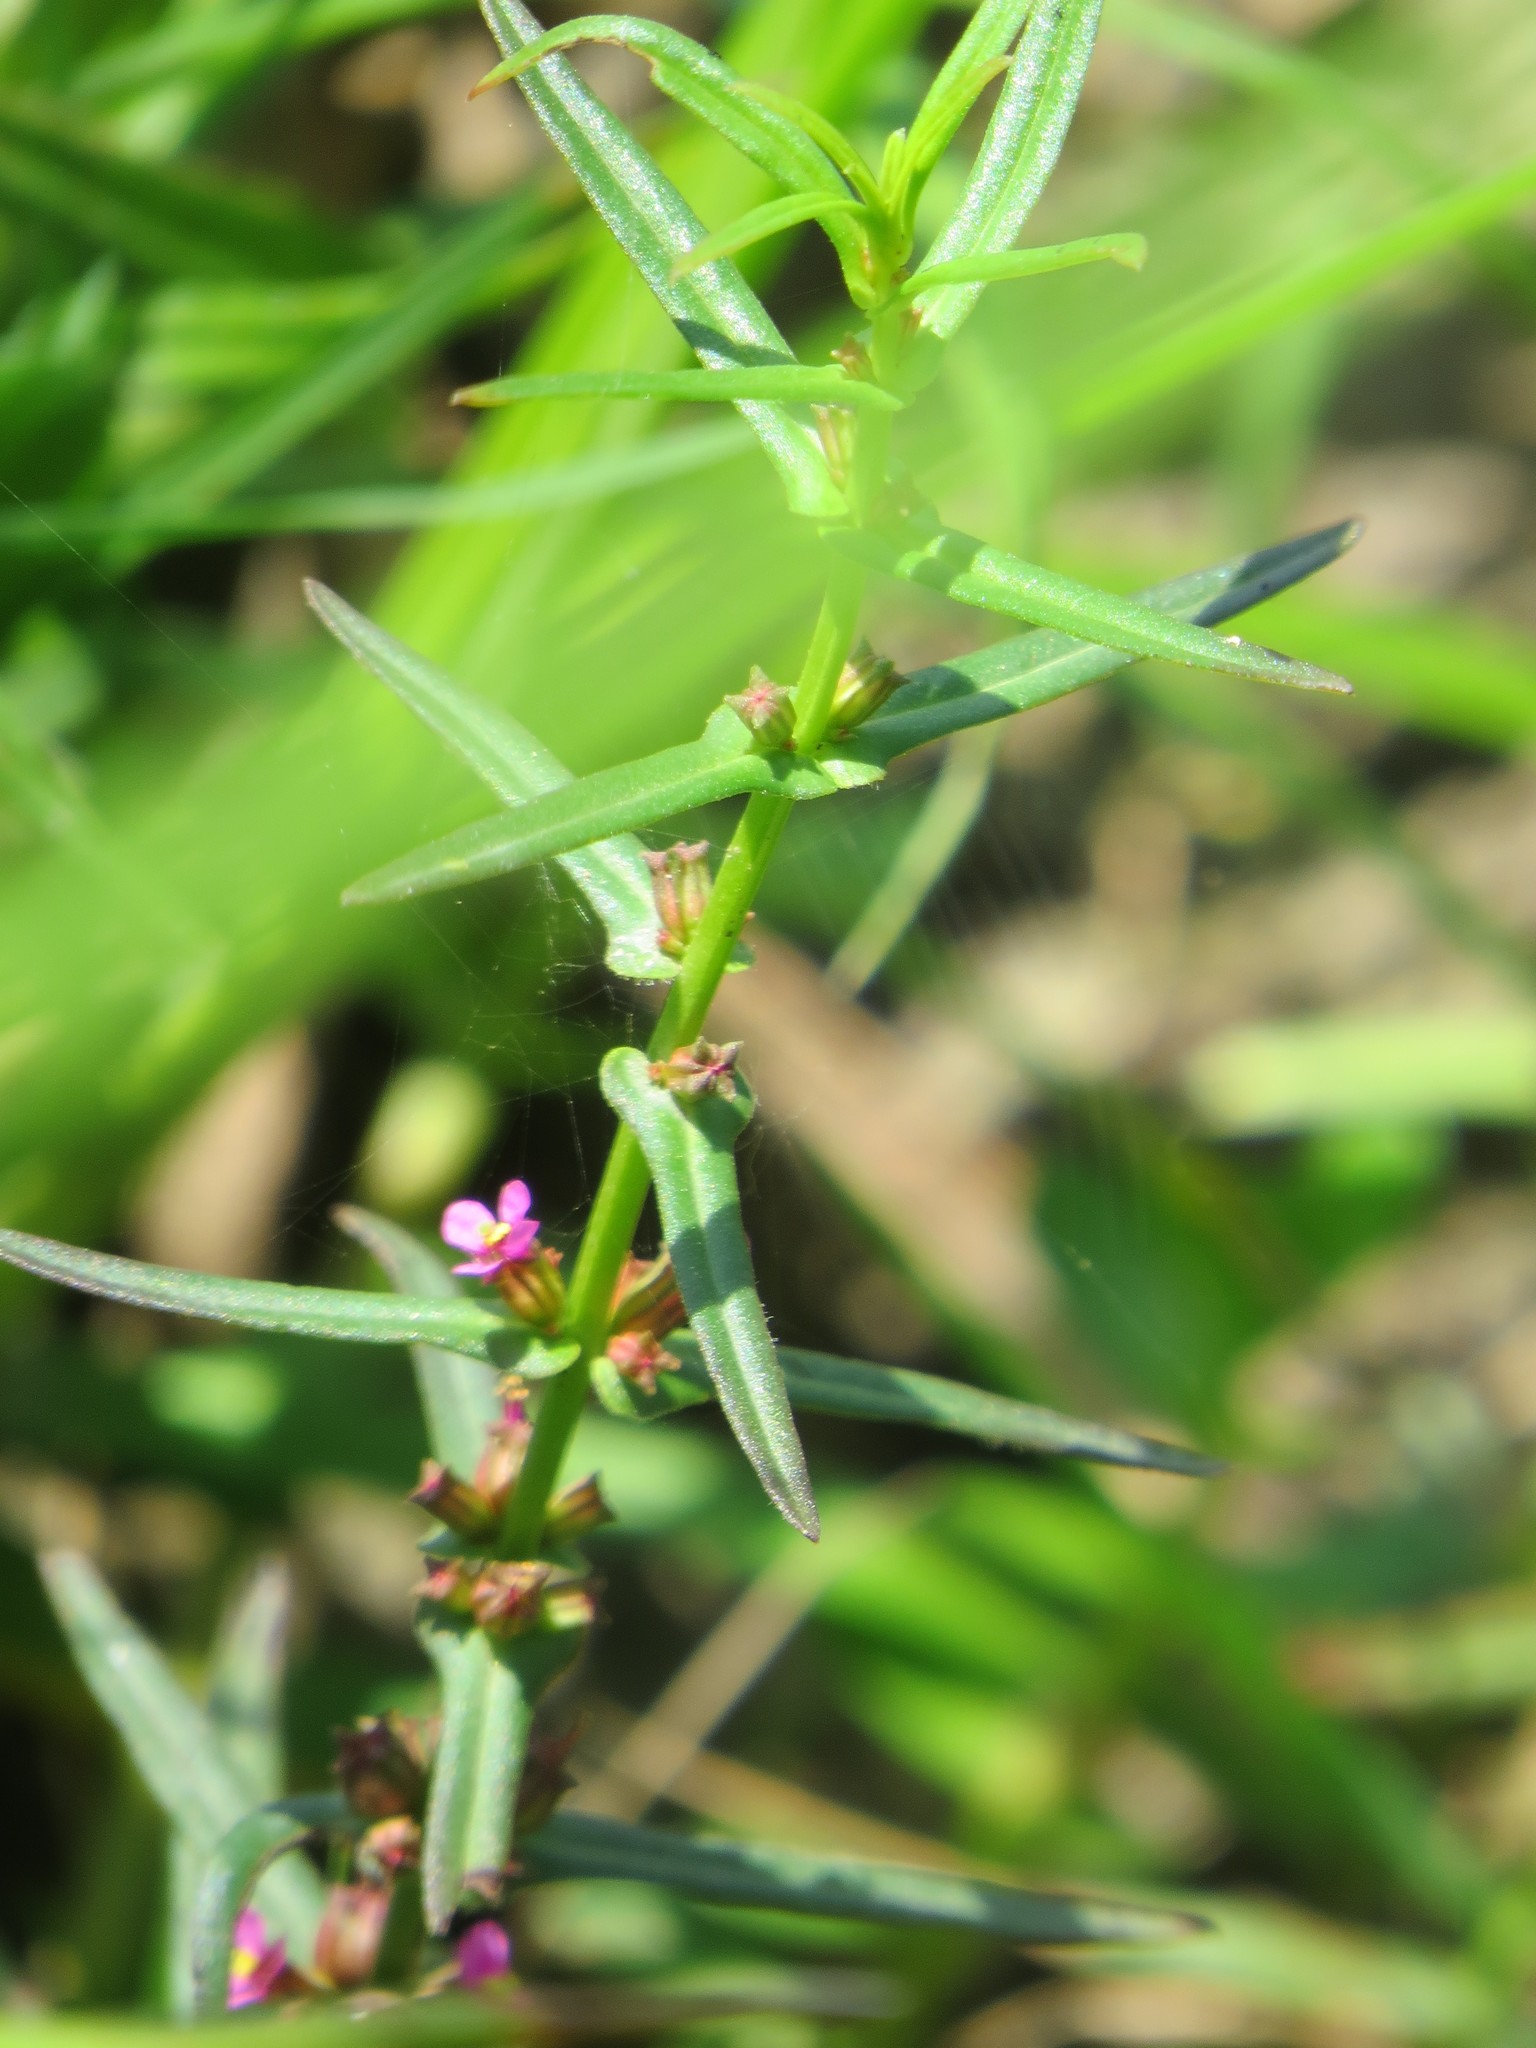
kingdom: Plantae
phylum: Tracheophyta
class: Magnoliopsida
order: Myrtales
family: Lythraceae
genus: Ammannia
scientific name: Ammannia coccinea
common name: Valley redstem
